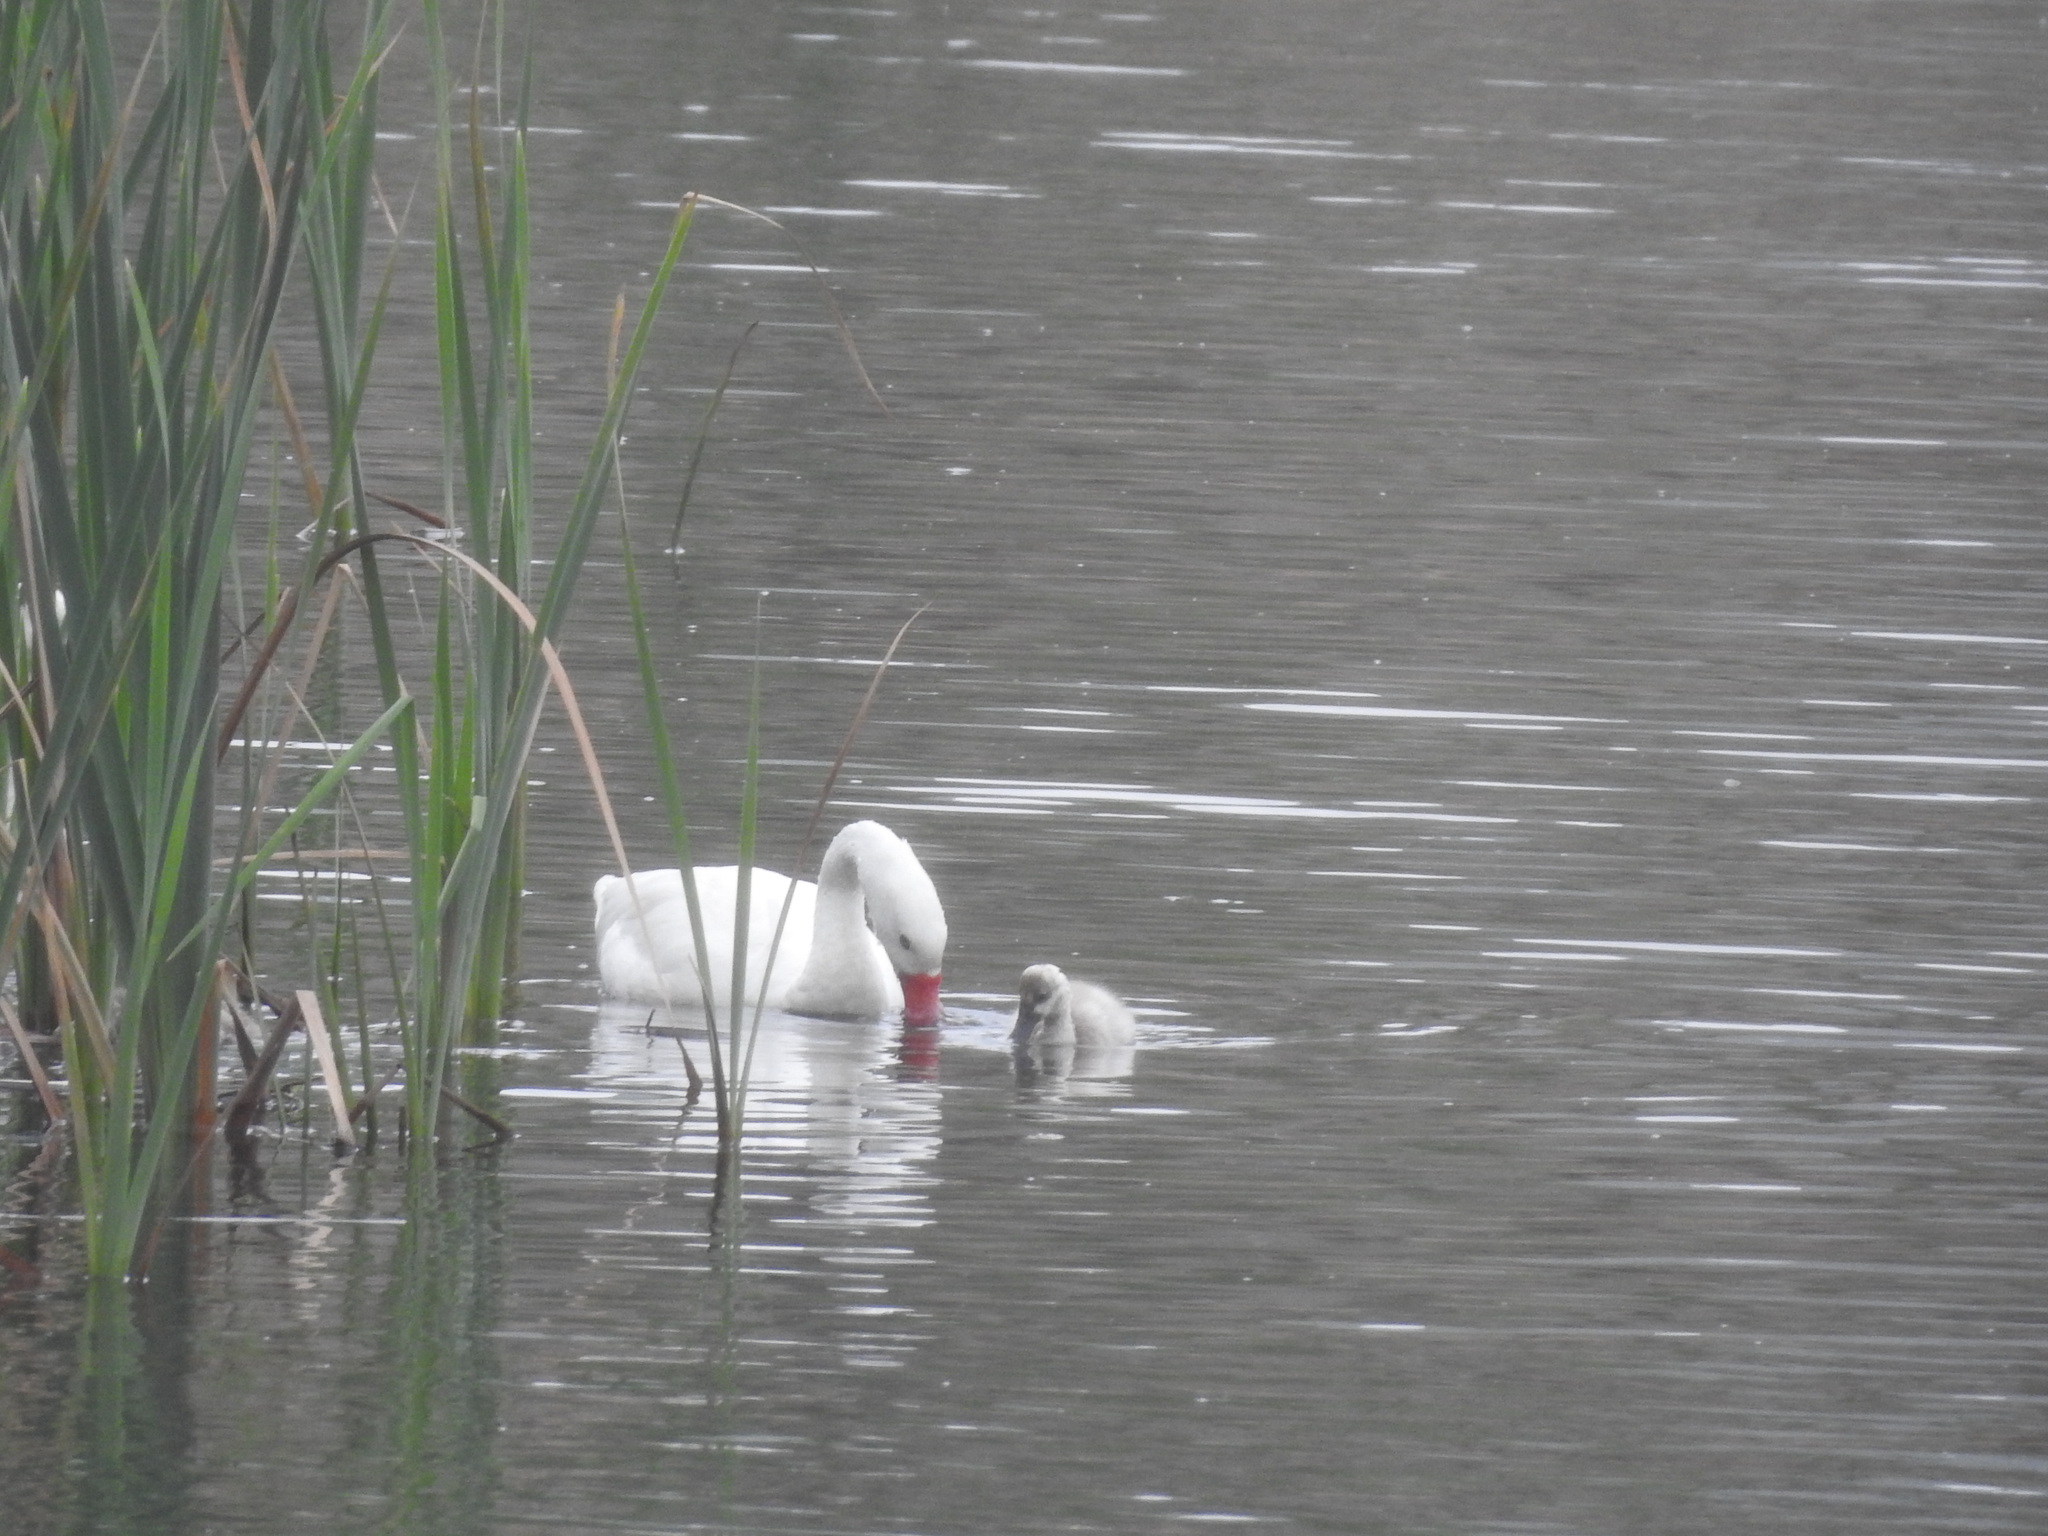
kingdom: Animalia
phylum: Chordata
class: Aves
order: Anseriformes
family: Anatidae
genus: Coscoroba
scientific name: Coscoroba coscoroba
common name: Coscoroba swan
